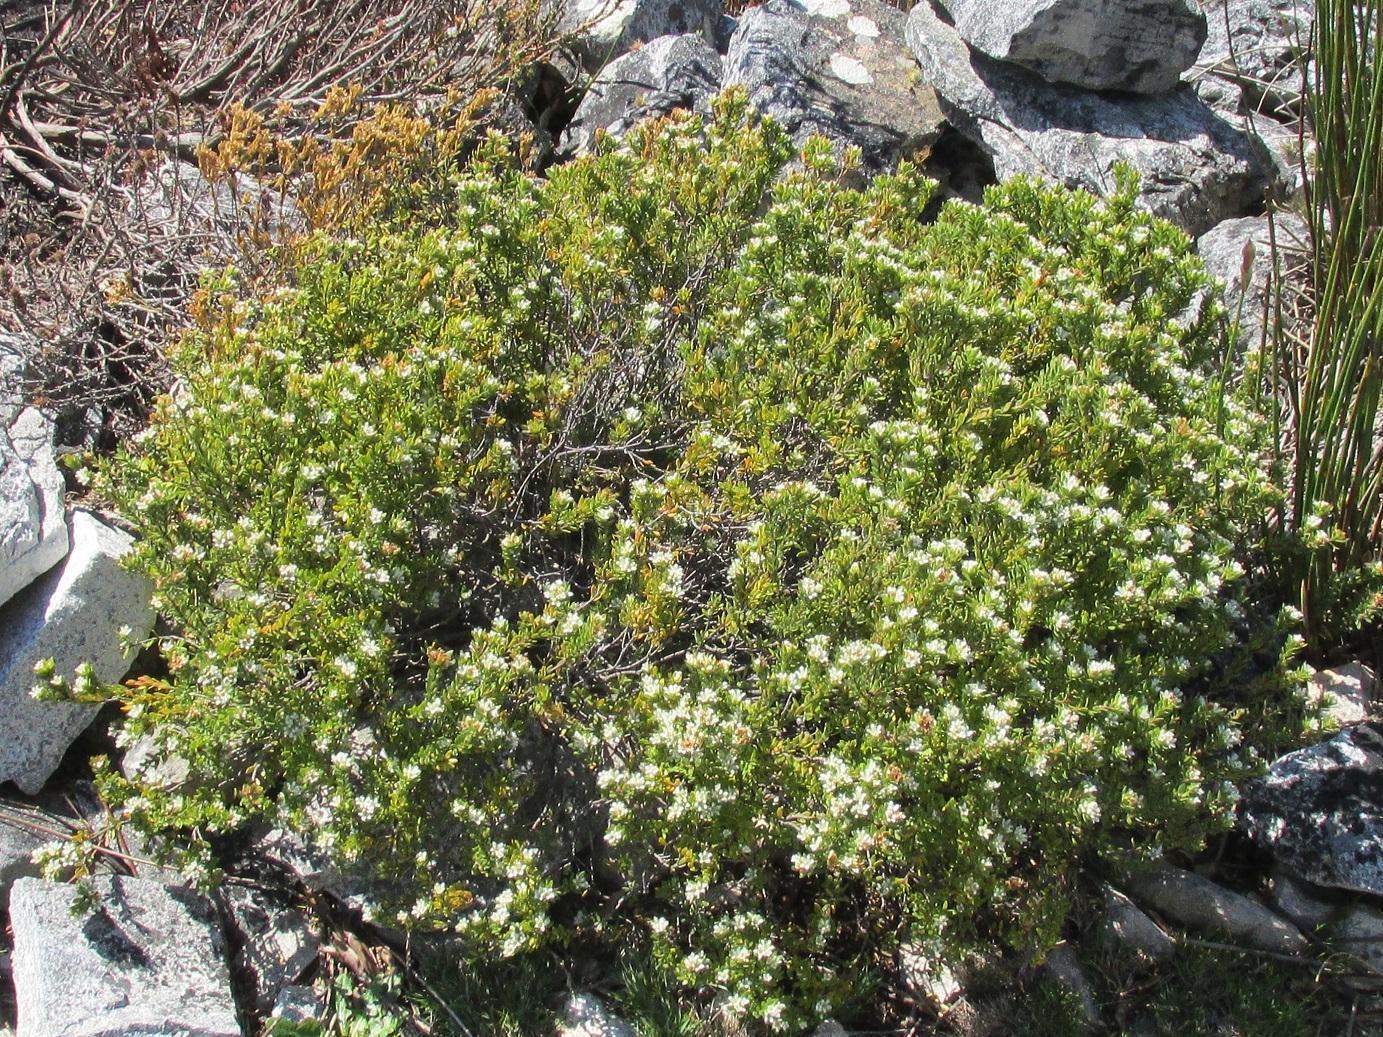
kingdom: Plantae
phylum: Tracheophyta
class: Magnoliopsida
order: Sapindales
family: Rutaceae
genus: Agathosma
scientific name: Agathosma rosmarinifolia
